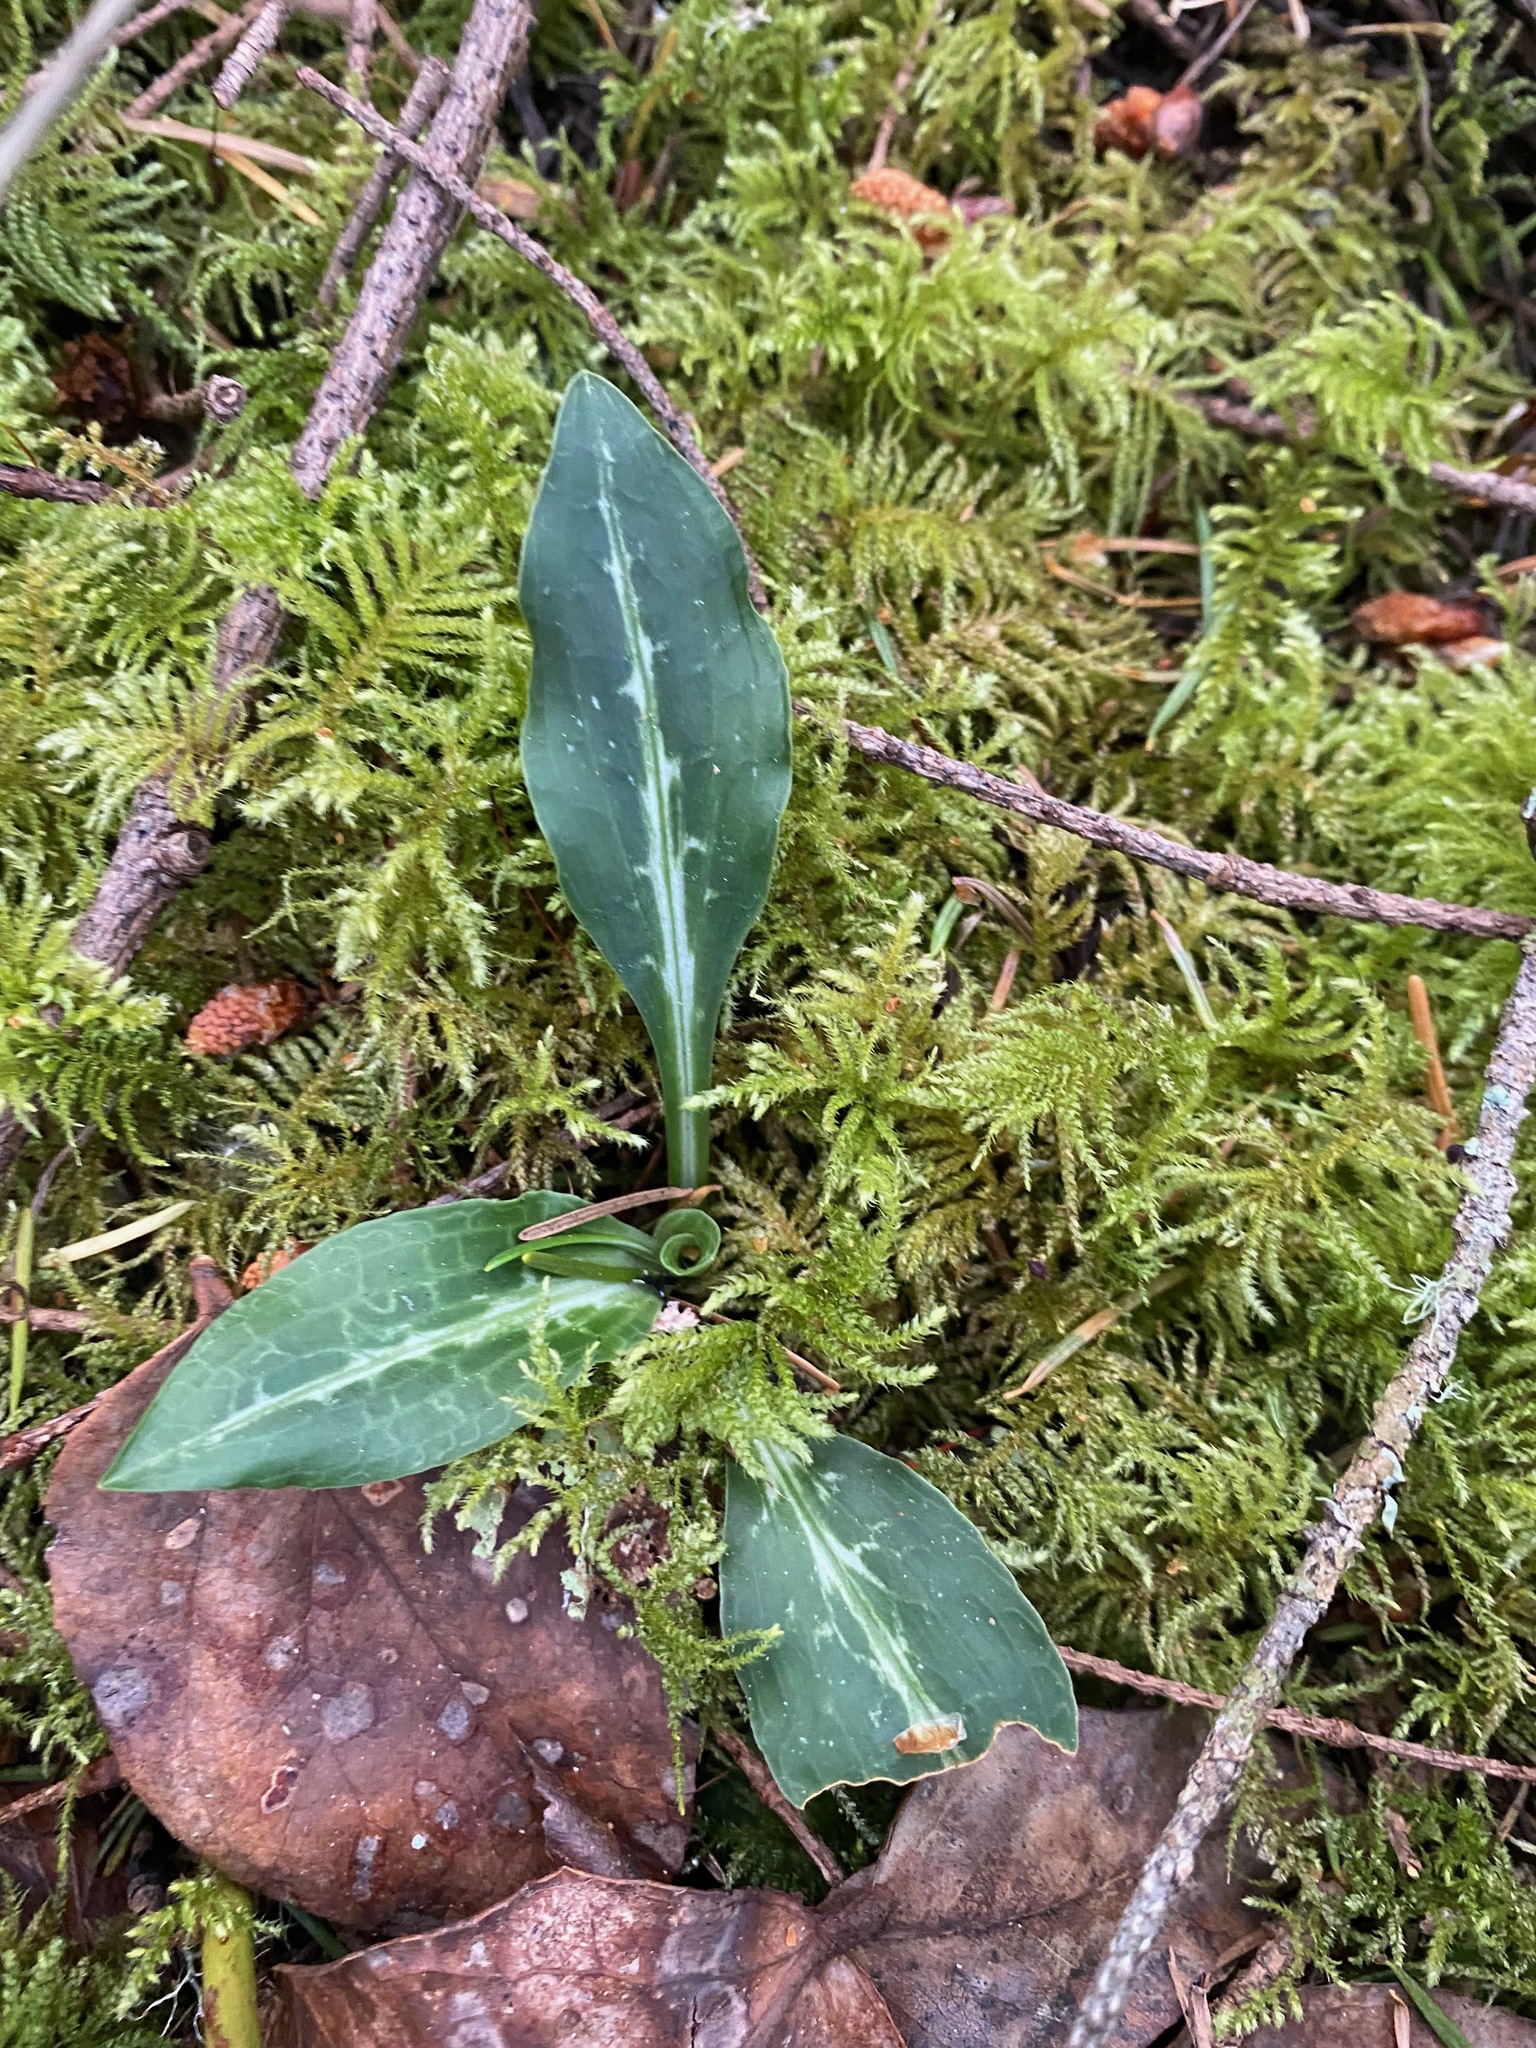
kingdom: Plantae
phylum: Tracheophyta
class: Liliopsida
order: Asparagales
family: Orchidaceae
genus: Goodyera
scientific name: Goodyera oblongifolia
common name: Giant rattlesnake-plantain
